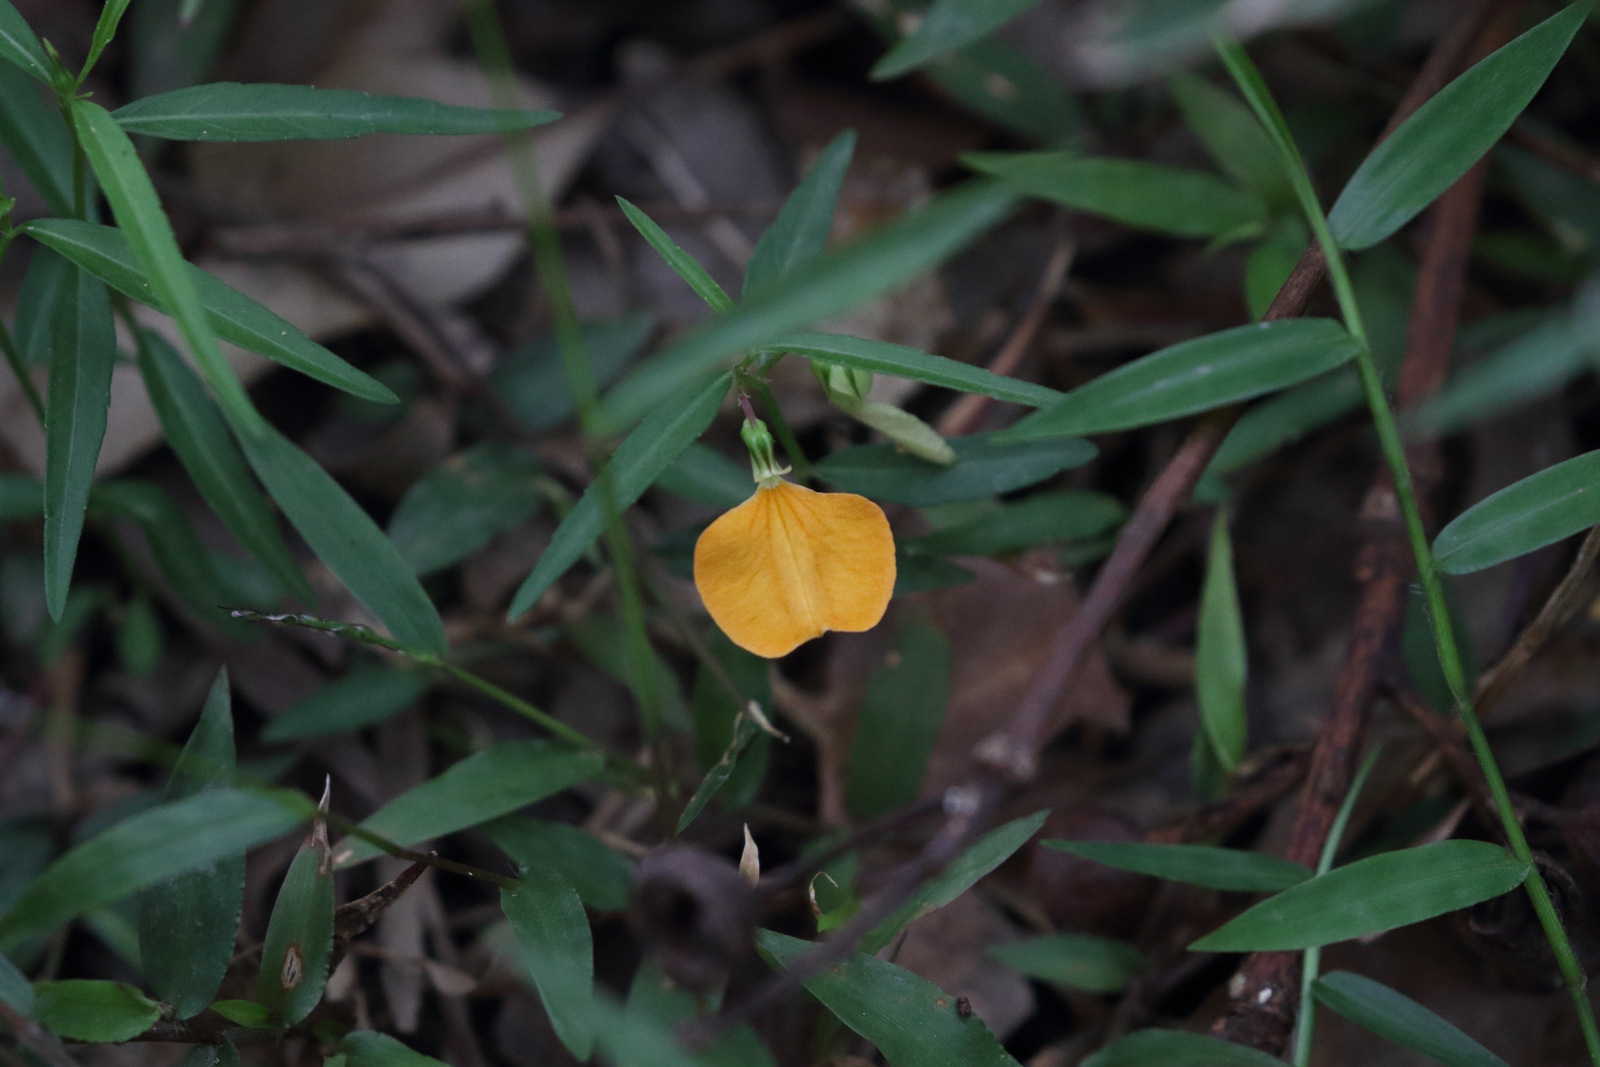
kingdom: Plantae
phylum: Tracheophyta
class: Magnoliopsida
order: Malpighiales
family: Violaceae
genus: Pigea
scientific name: Pigea stellarioides
